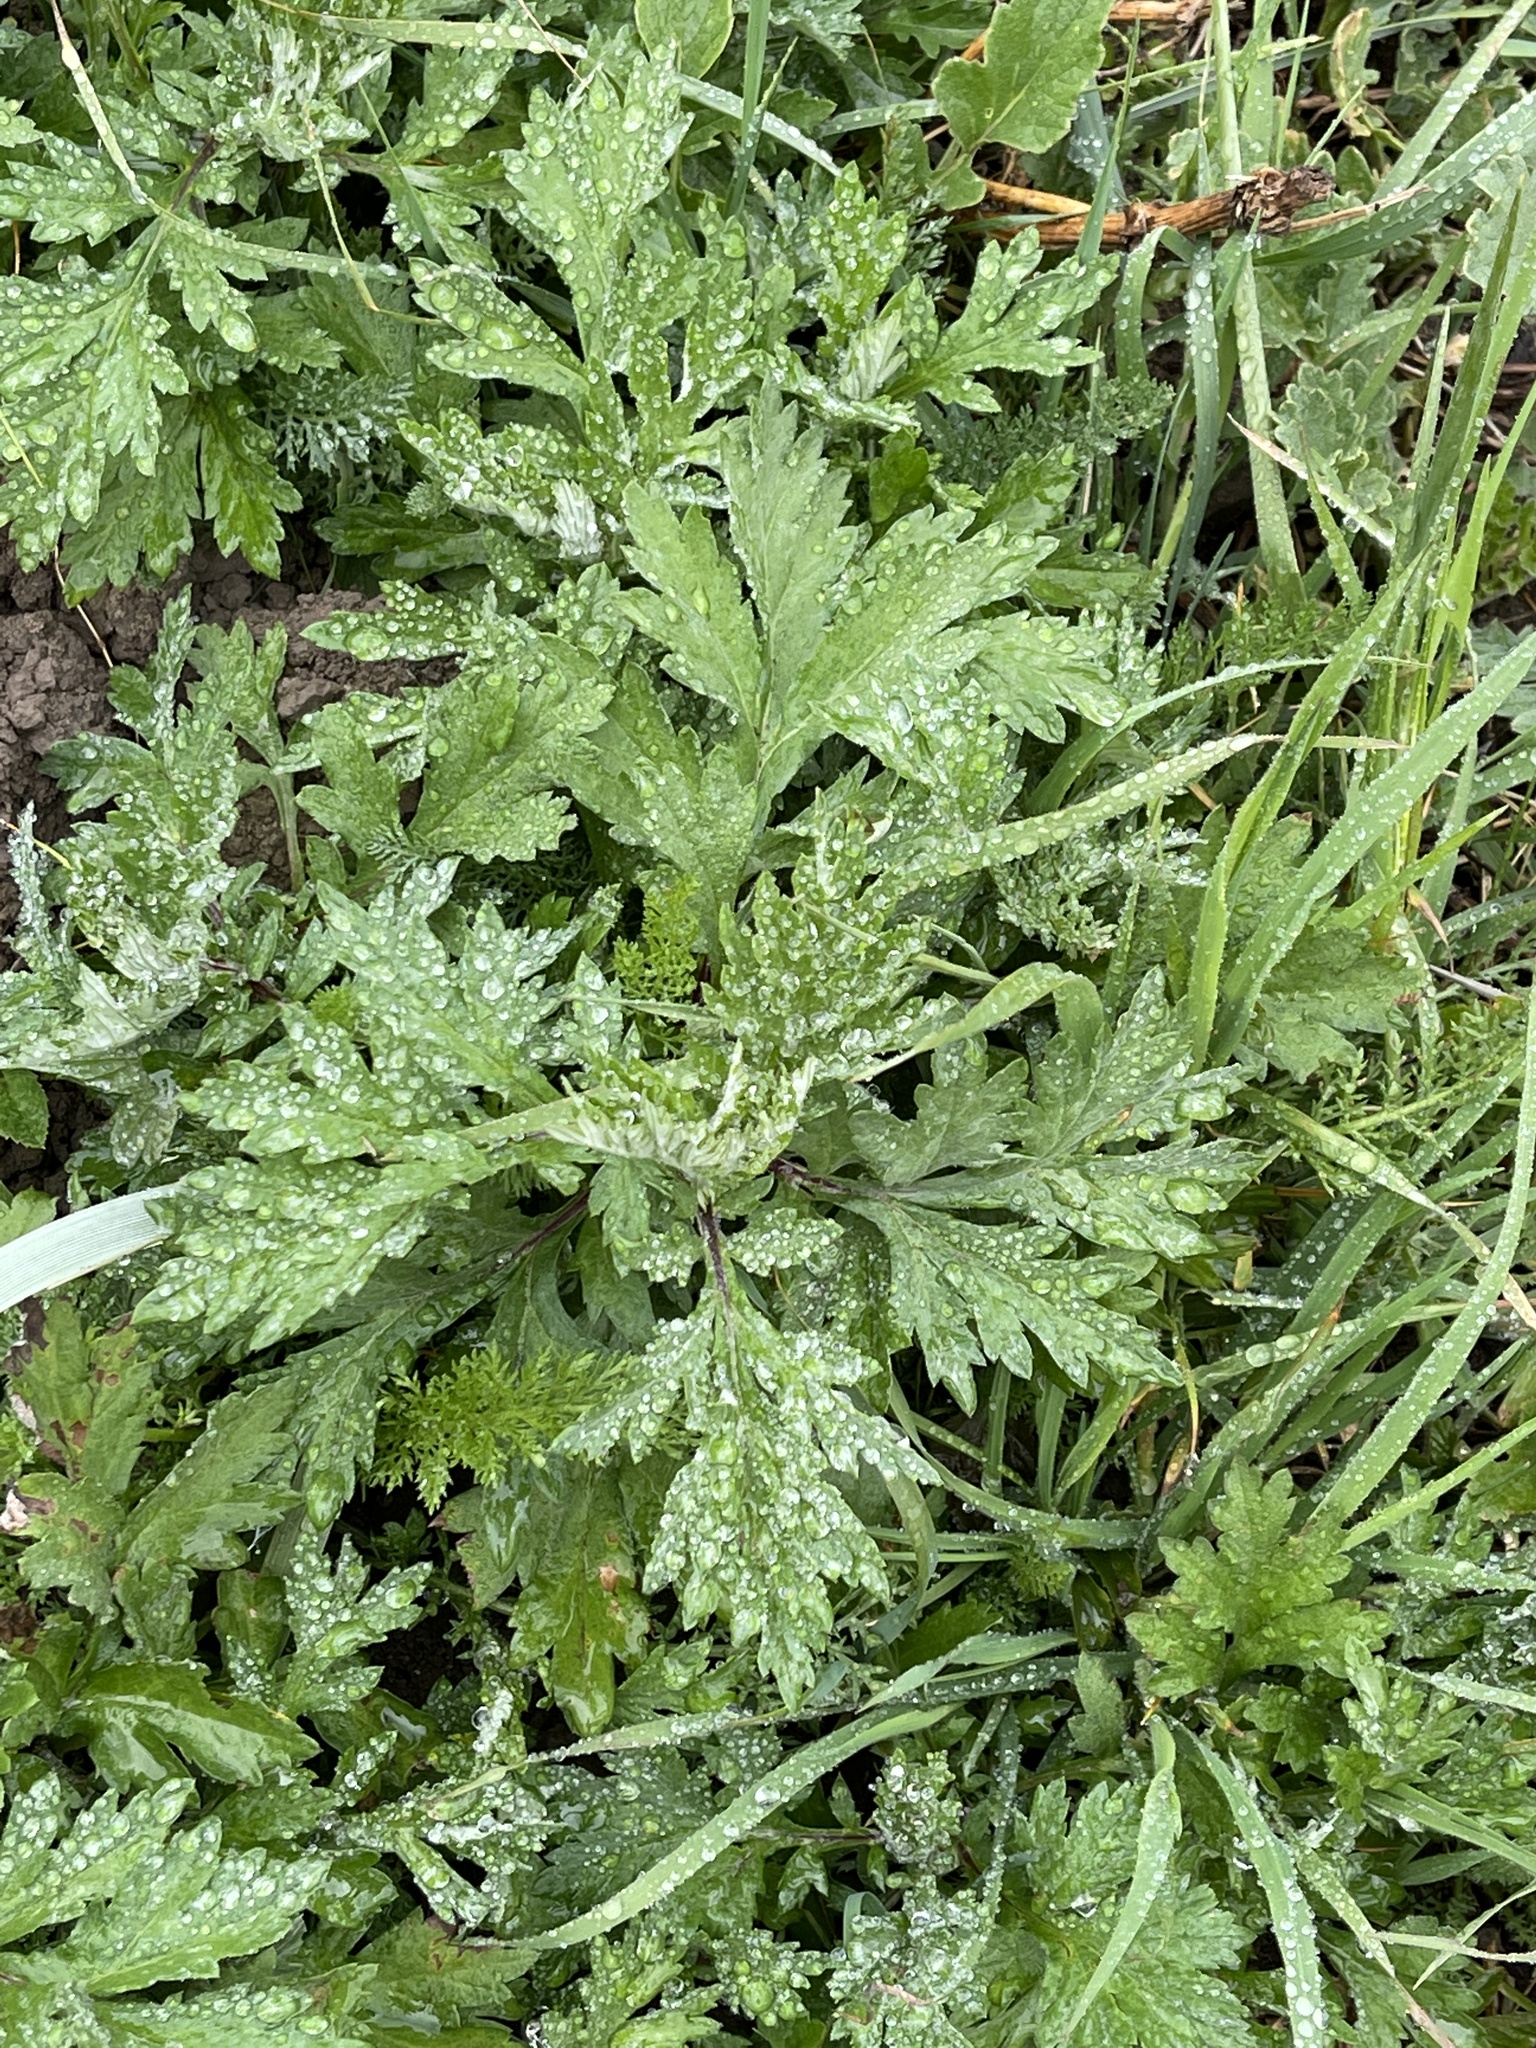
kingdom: Plantae
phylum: Tracheophyta
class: Magnoliopsida
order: Asterales
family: Asteraceae
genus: Artemisia
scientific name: Artemisia vulgaris
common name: Mugwort
